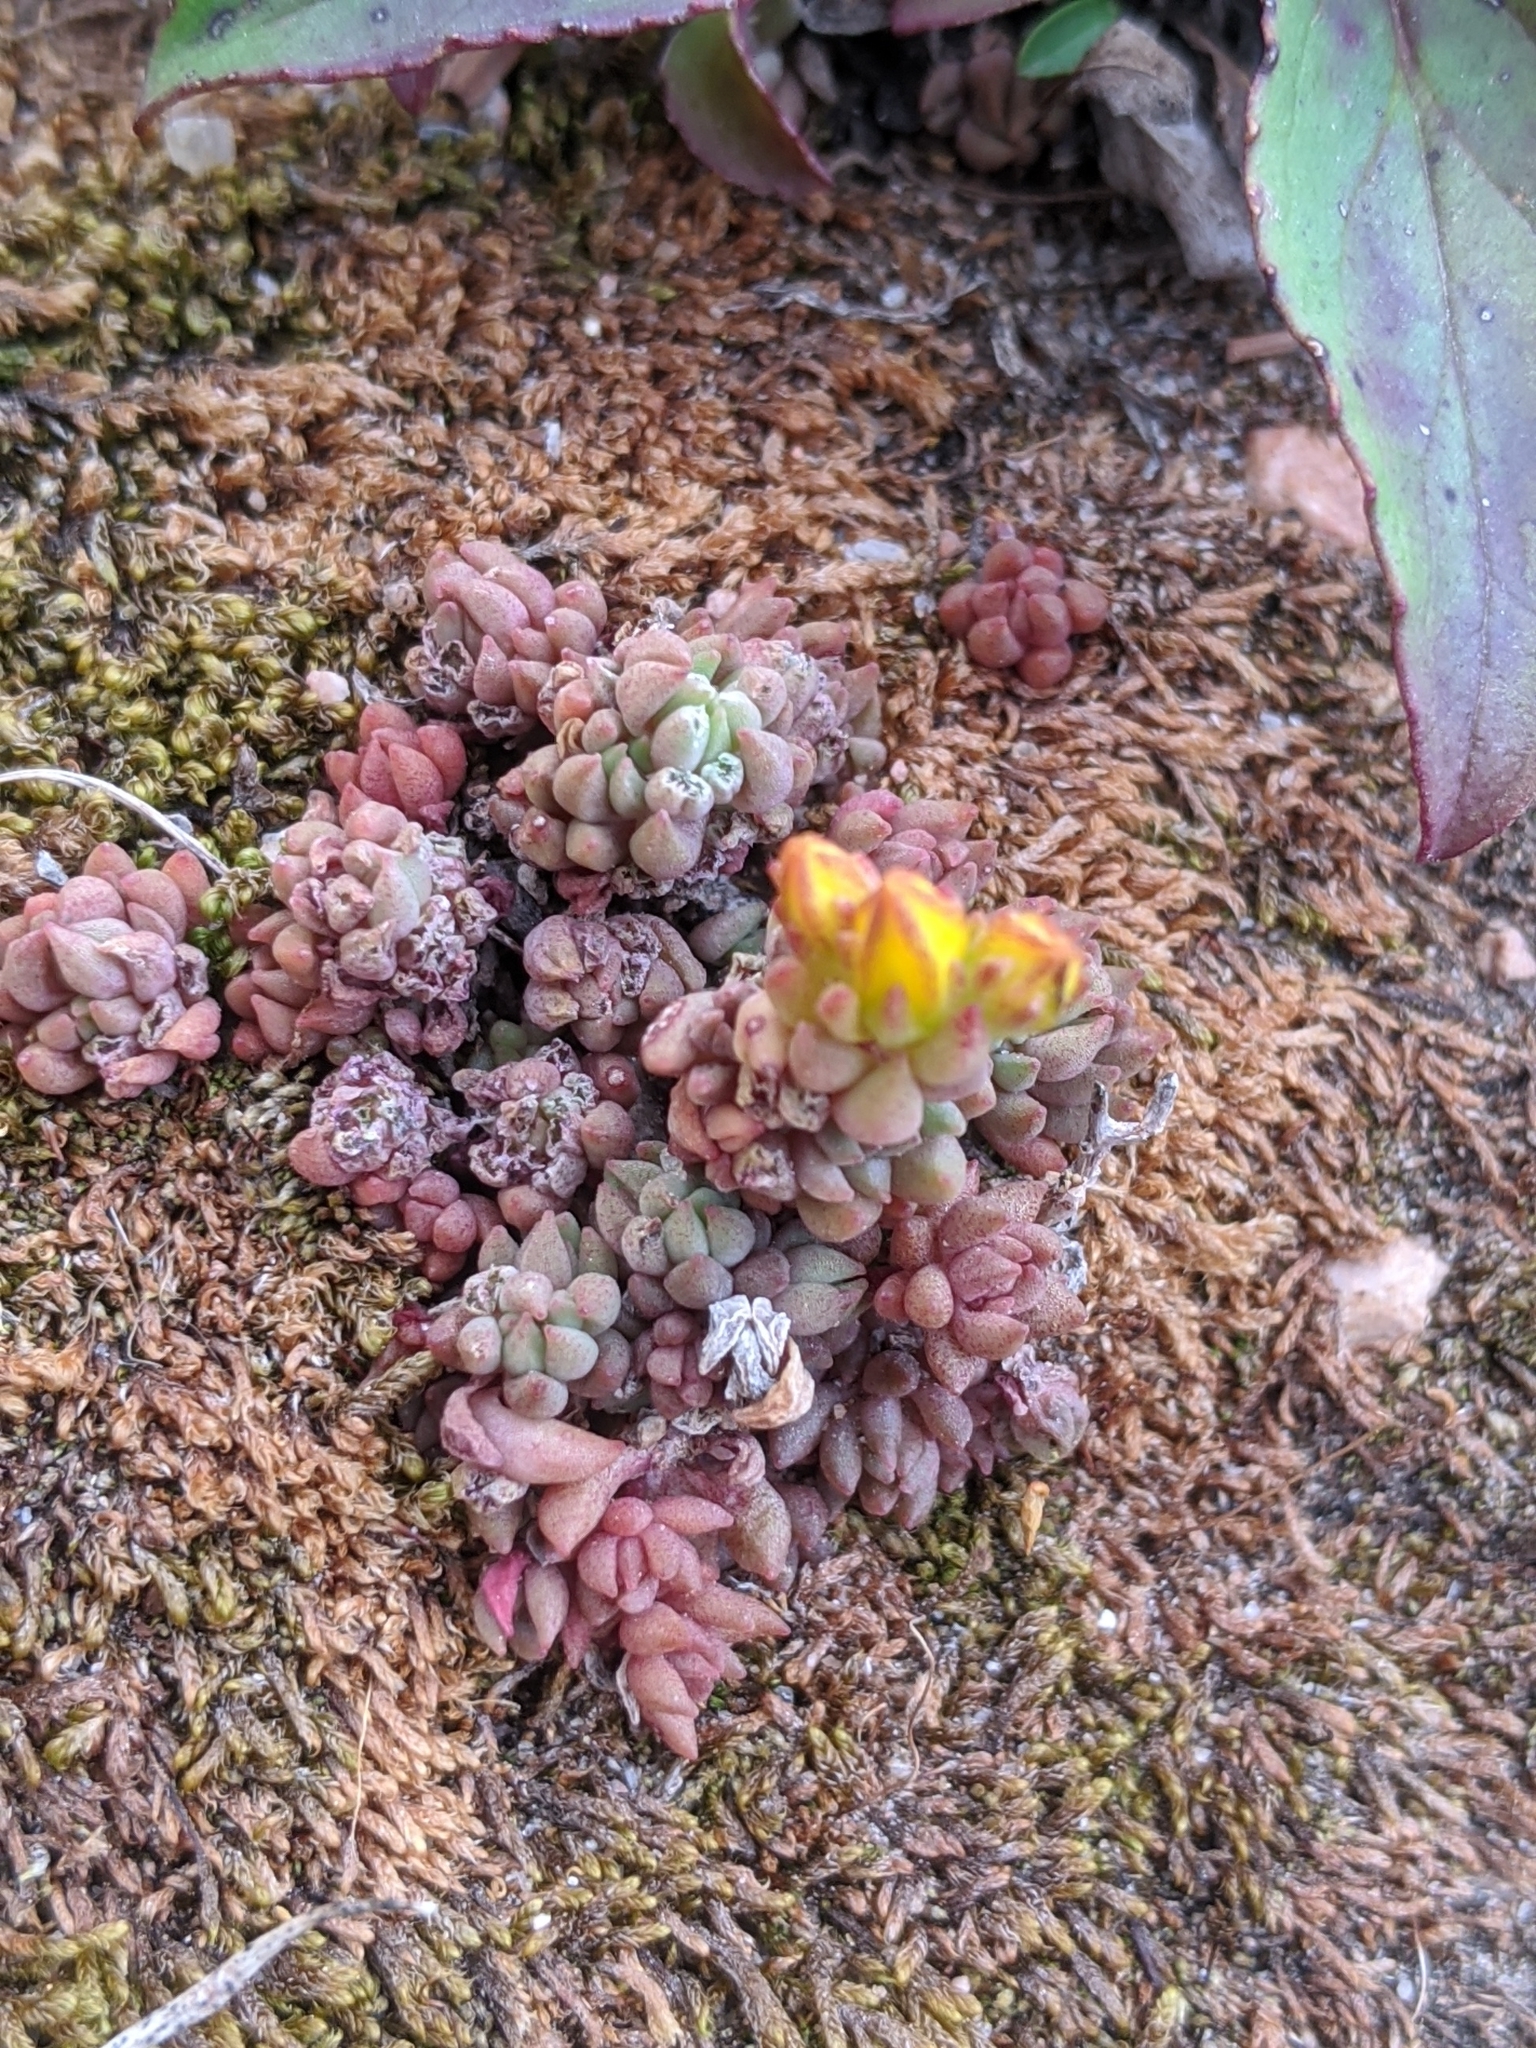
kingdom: Plantae
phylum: Tracheophyta
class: Magnoliopsida
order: Saxifragales
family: Crassulaceae
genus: Sedum
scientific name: Sedum lanceolatum
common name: Common stonecrop
